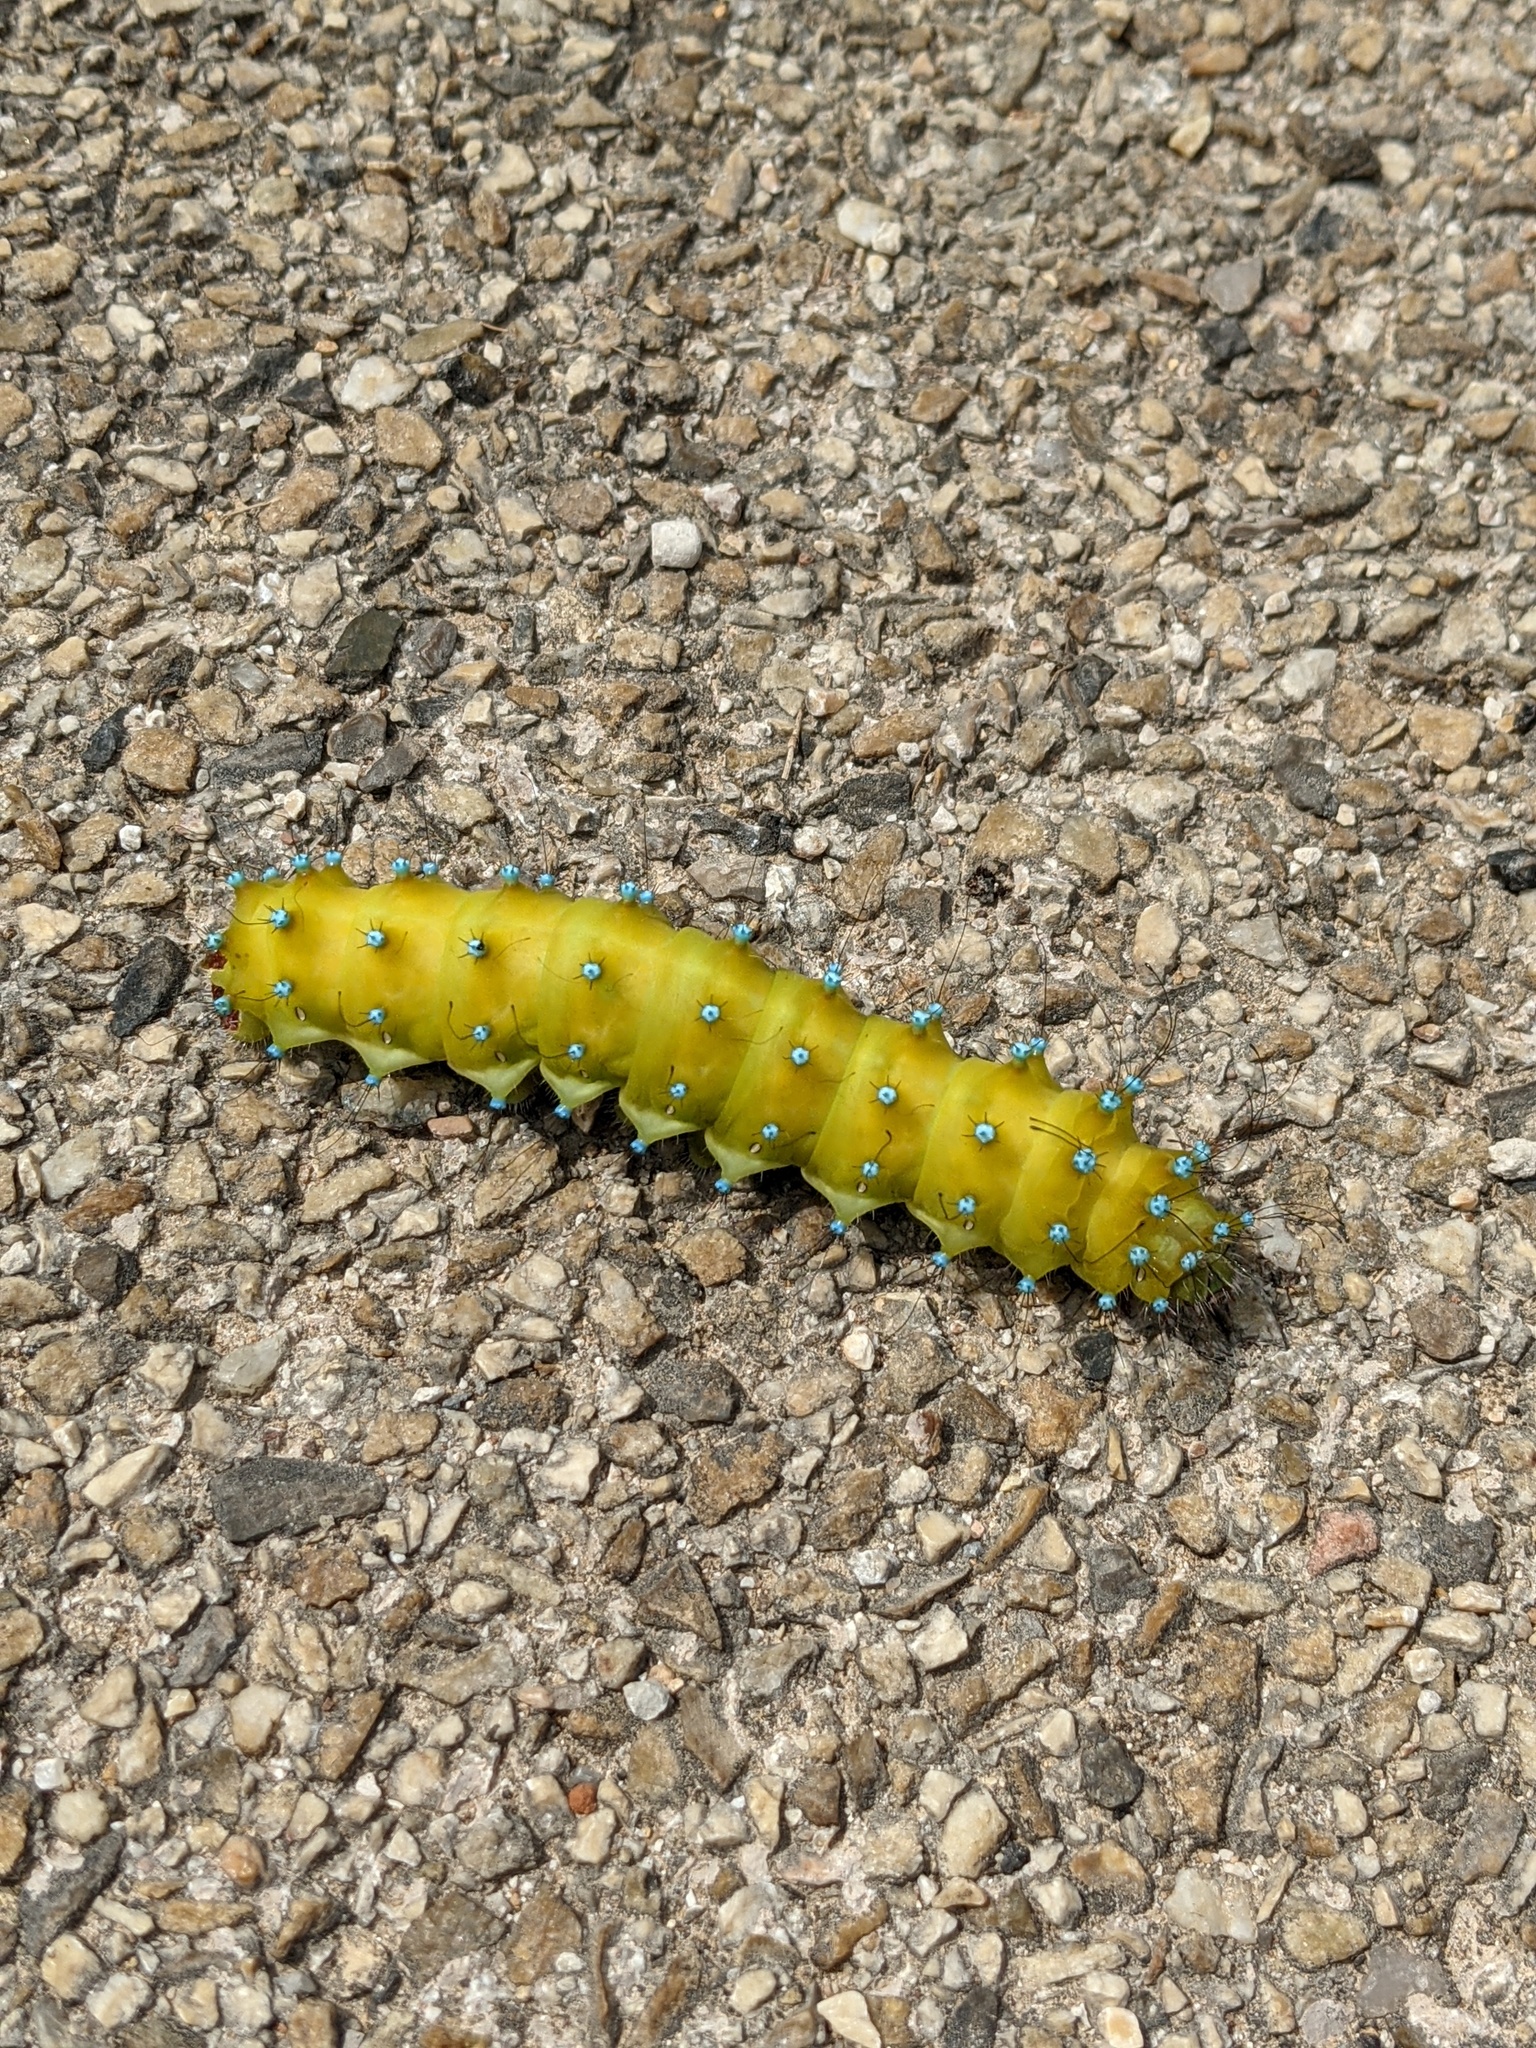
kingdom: Animalia
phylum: Arthropoda
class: Insecta
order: Lepidoptera
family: Saturniidae
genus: Saturnia
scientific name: Saturnia pyri
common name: Great peacock moth
